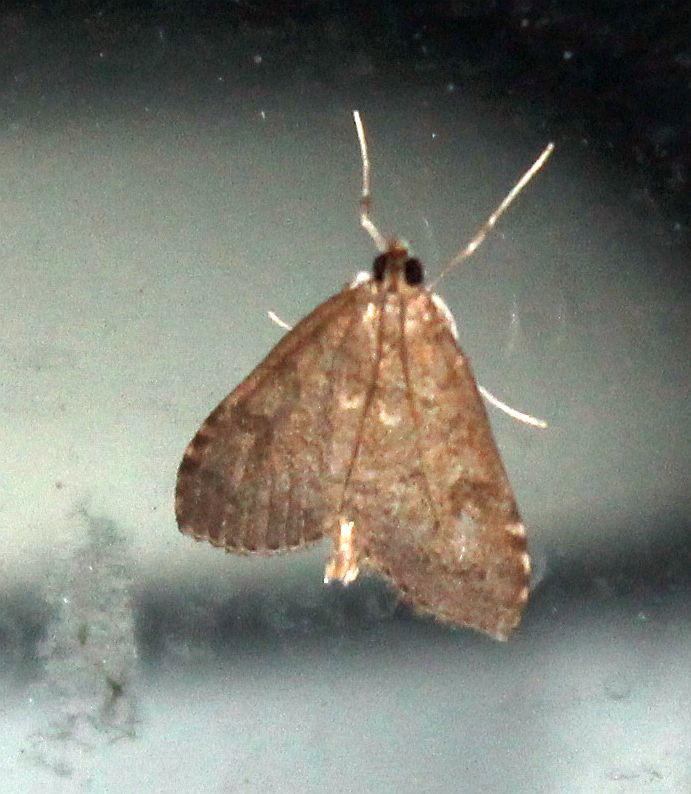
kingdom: Animalia
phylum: Arthropoda
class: Insecta
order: Lepidoptera
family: Crambidae
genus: Udea
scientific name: Udea prunalis
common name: Dusky pearl
